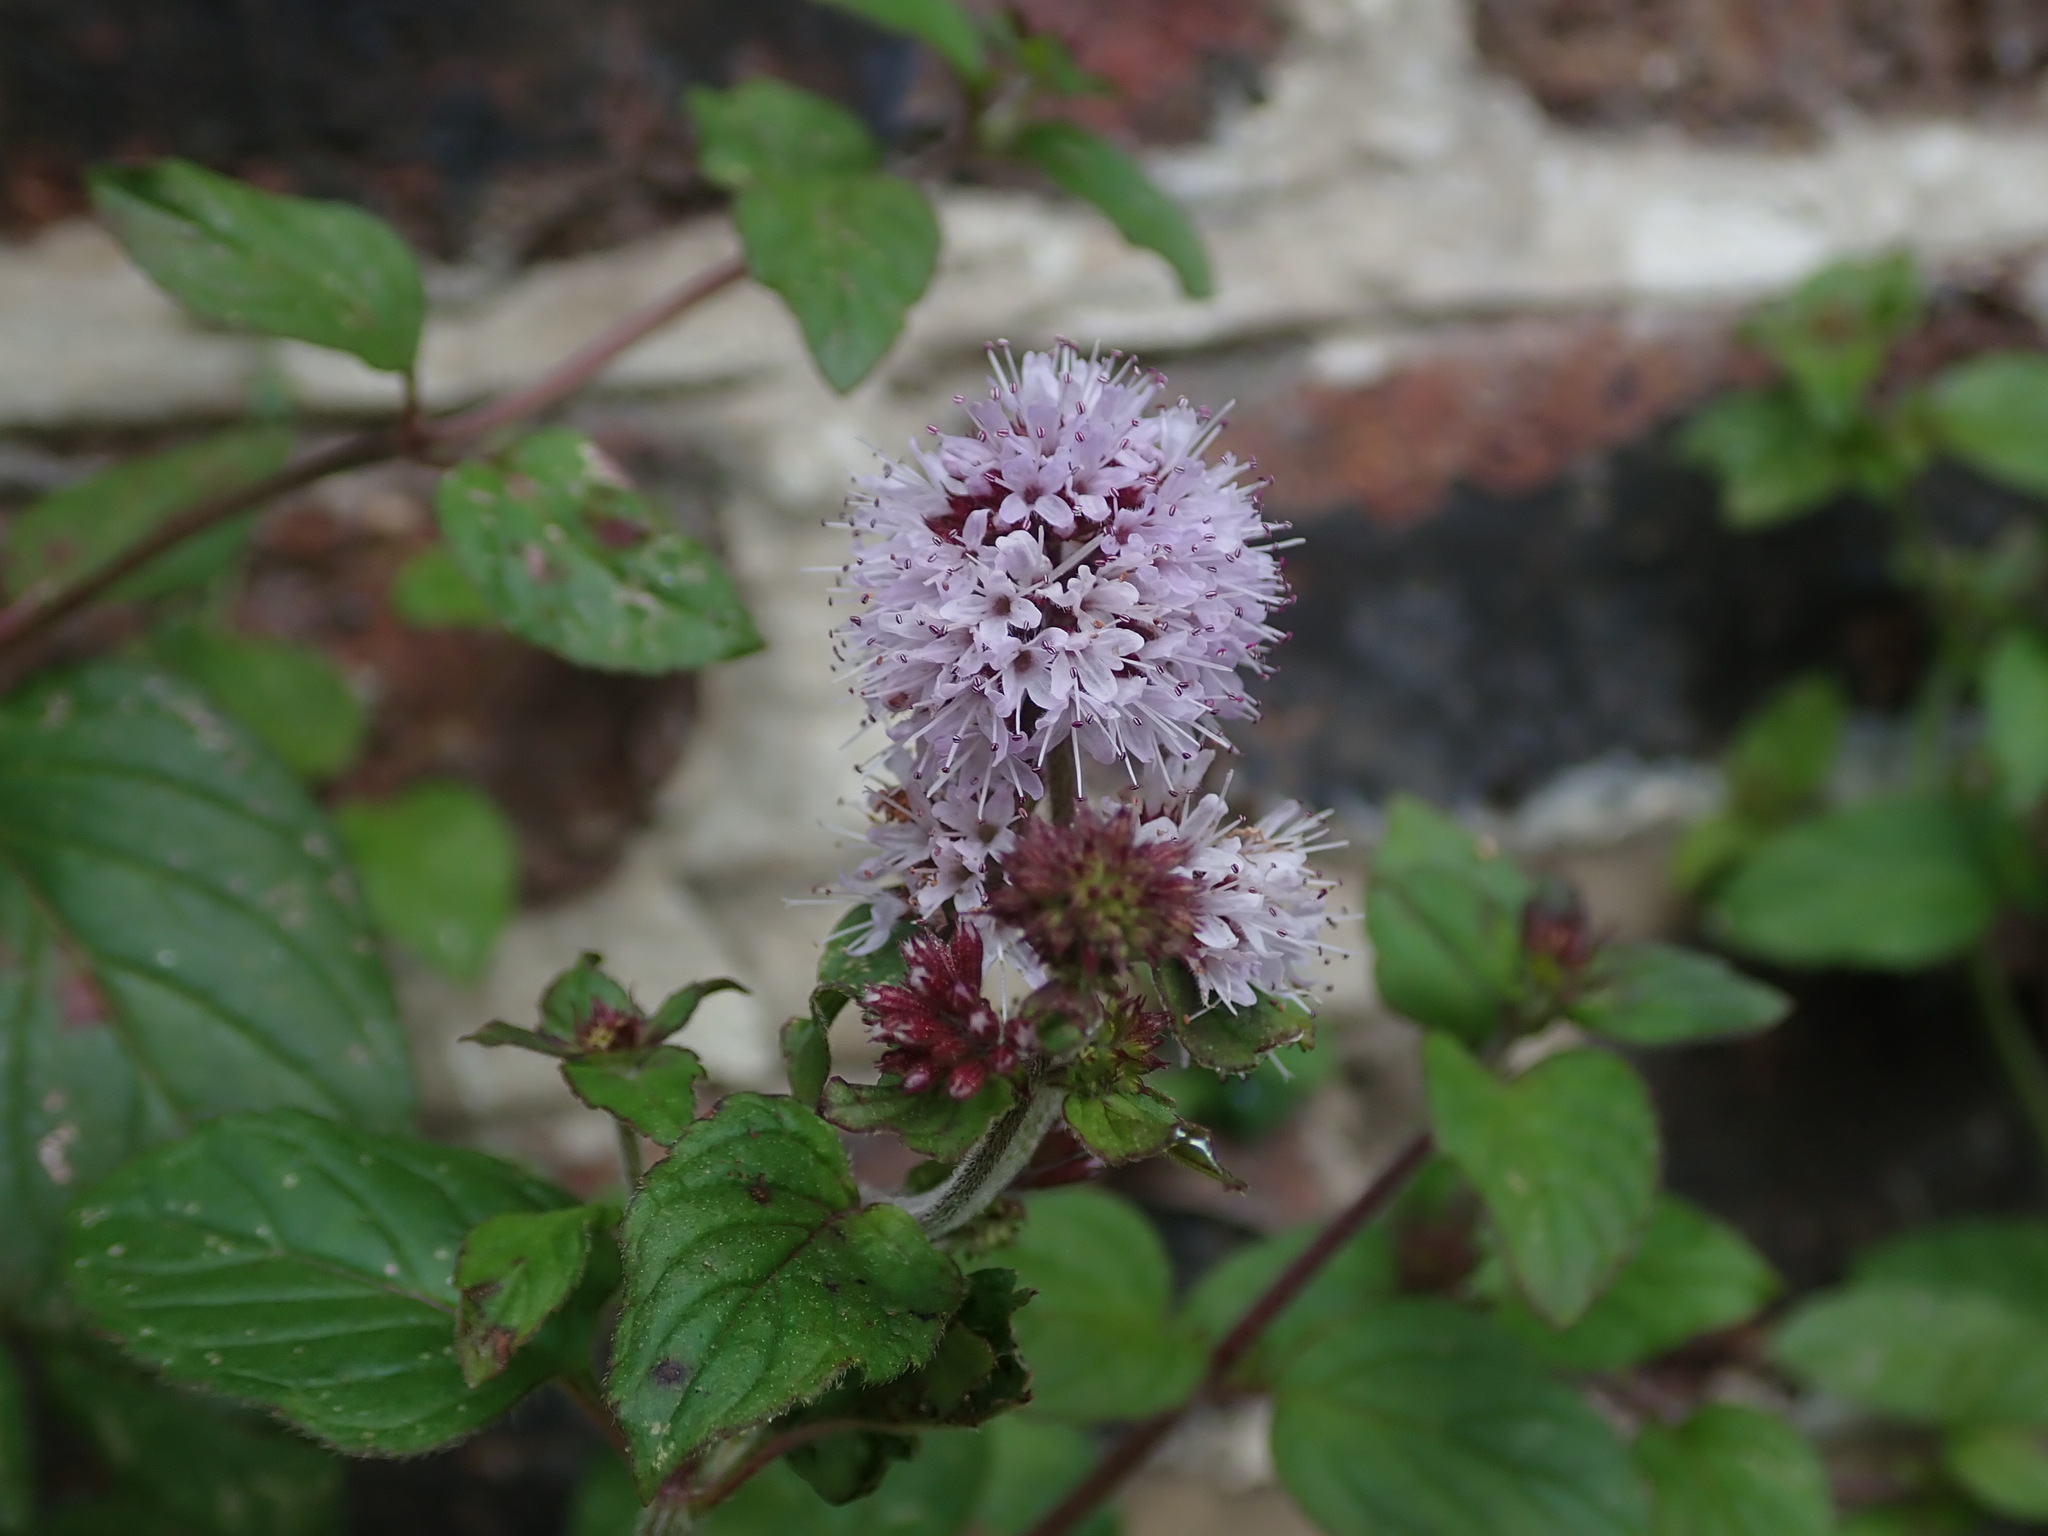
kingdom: Plantae
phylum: Tracheophyta
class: Magnoliopsida
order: Lamiales
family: Lamiaceae
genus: Mentha
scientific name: Mentha aquatica
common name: Water mint
